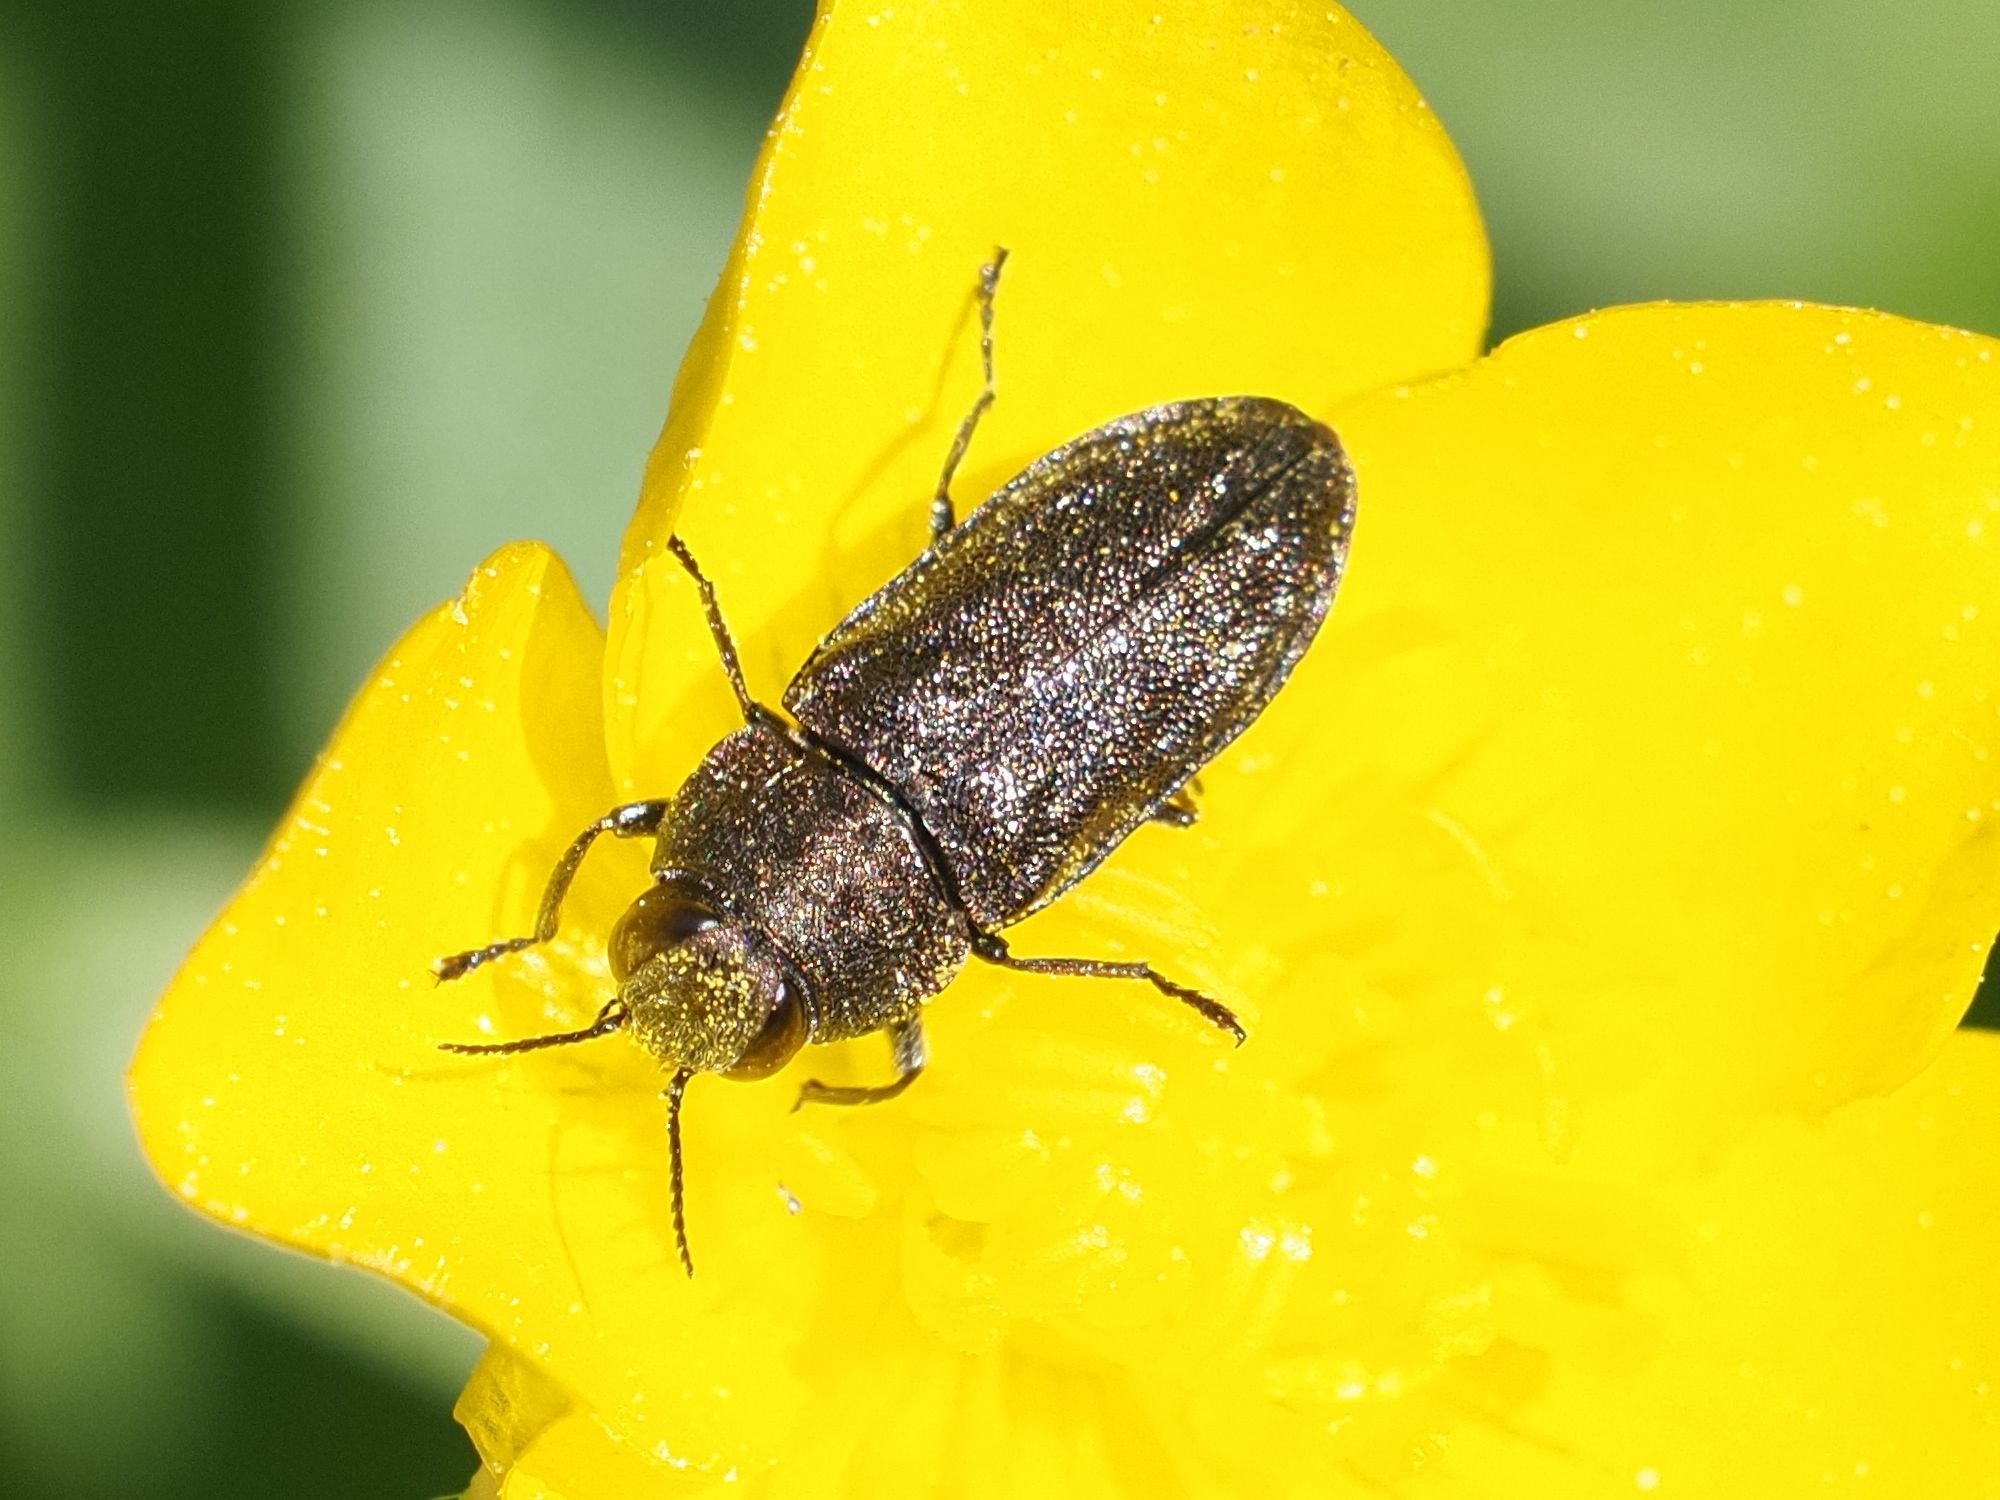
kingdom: Animalia
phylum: Arthropoda
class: Insecta
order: Coleoptera
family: Buprestidae
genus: Anthaxia
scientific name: Anthaxia morio
